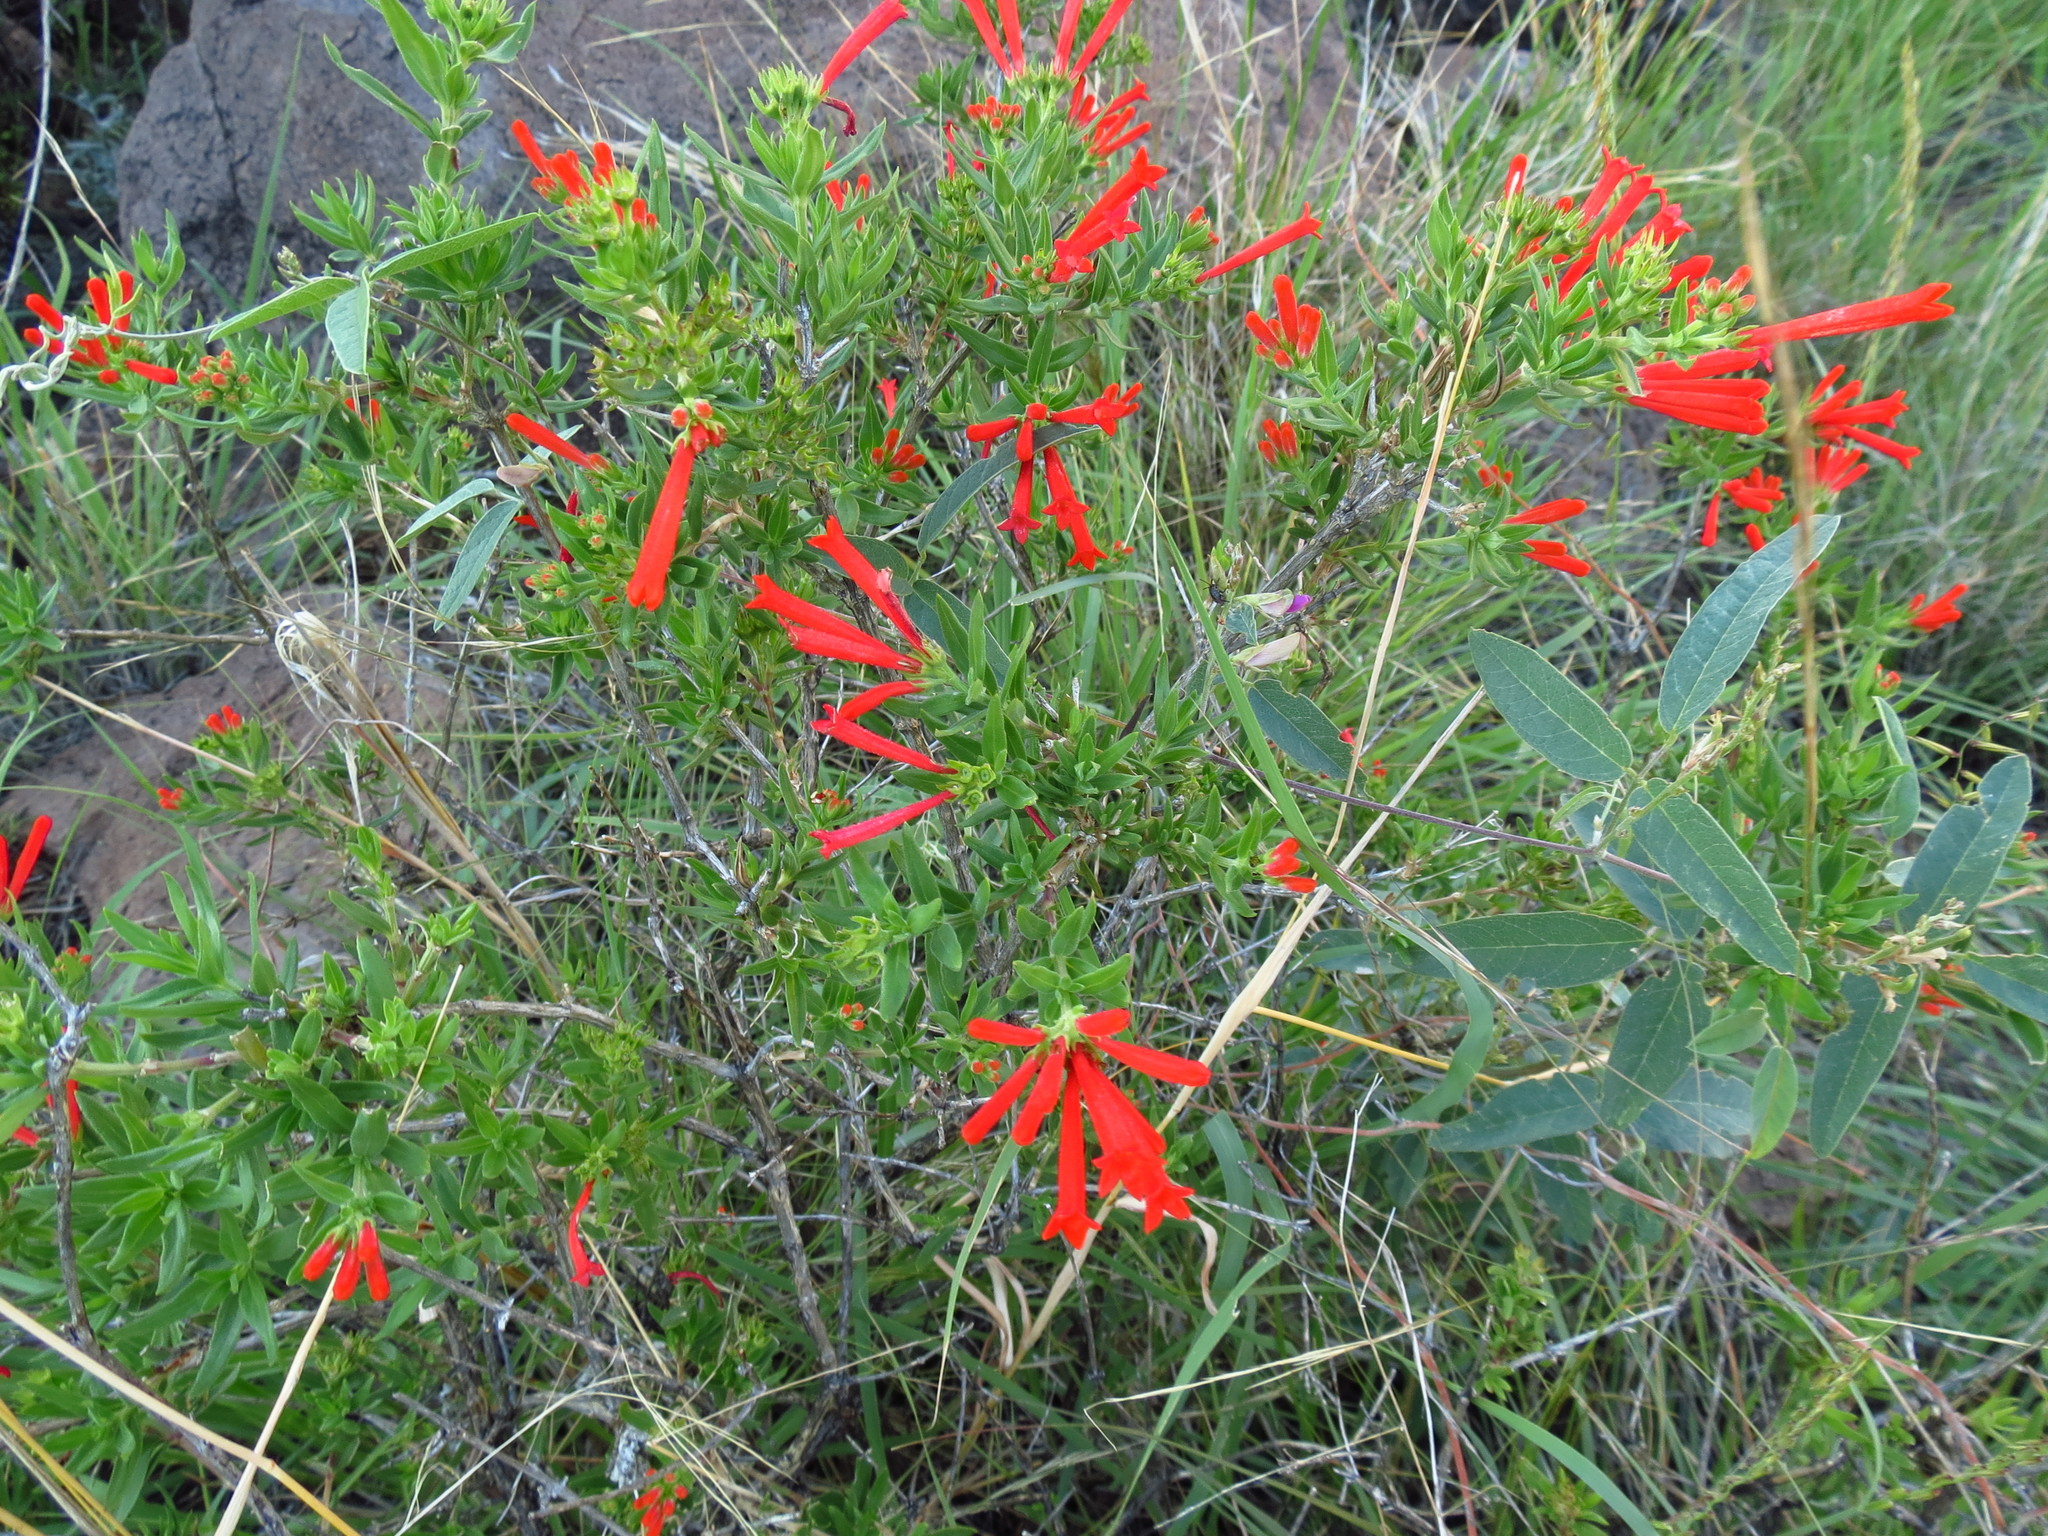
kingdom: Plantae
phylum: Tracheophyta
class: Magnoliopsida
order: Gentianales
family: Rubiaceae
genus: Bouvardia
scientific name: Bouvardia ternifolia
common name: Scarlet bouvardia
